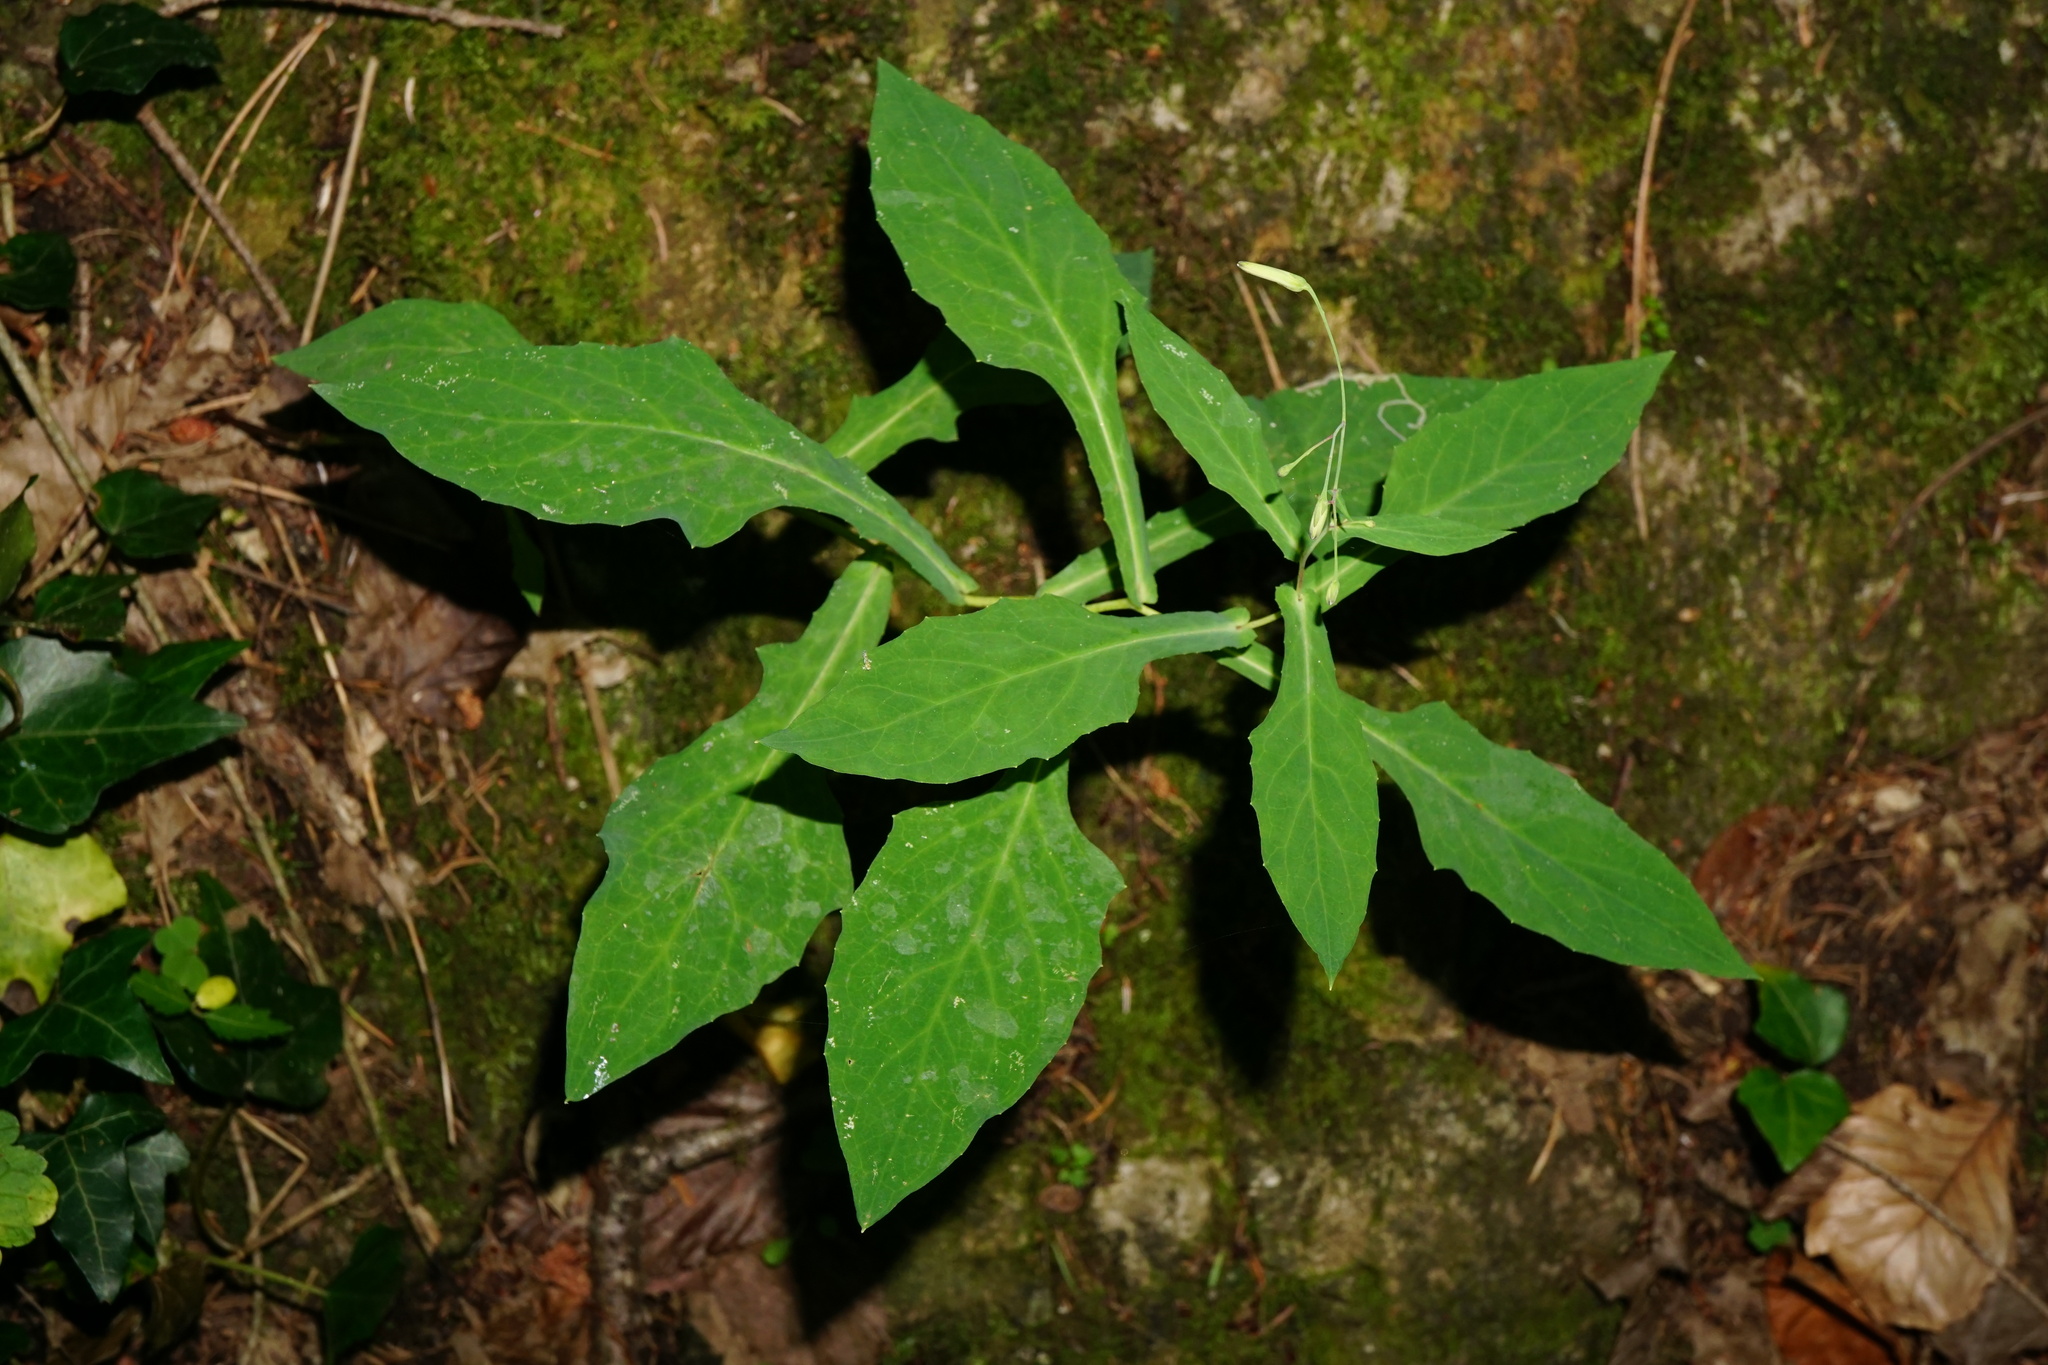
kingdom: Plantae
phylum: Tracheophyta
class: Magnoliopsida
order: Asterales
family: Asteraceae
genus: Prenanthes
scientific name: Prenanthes purpurea
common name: Purple lettuce
